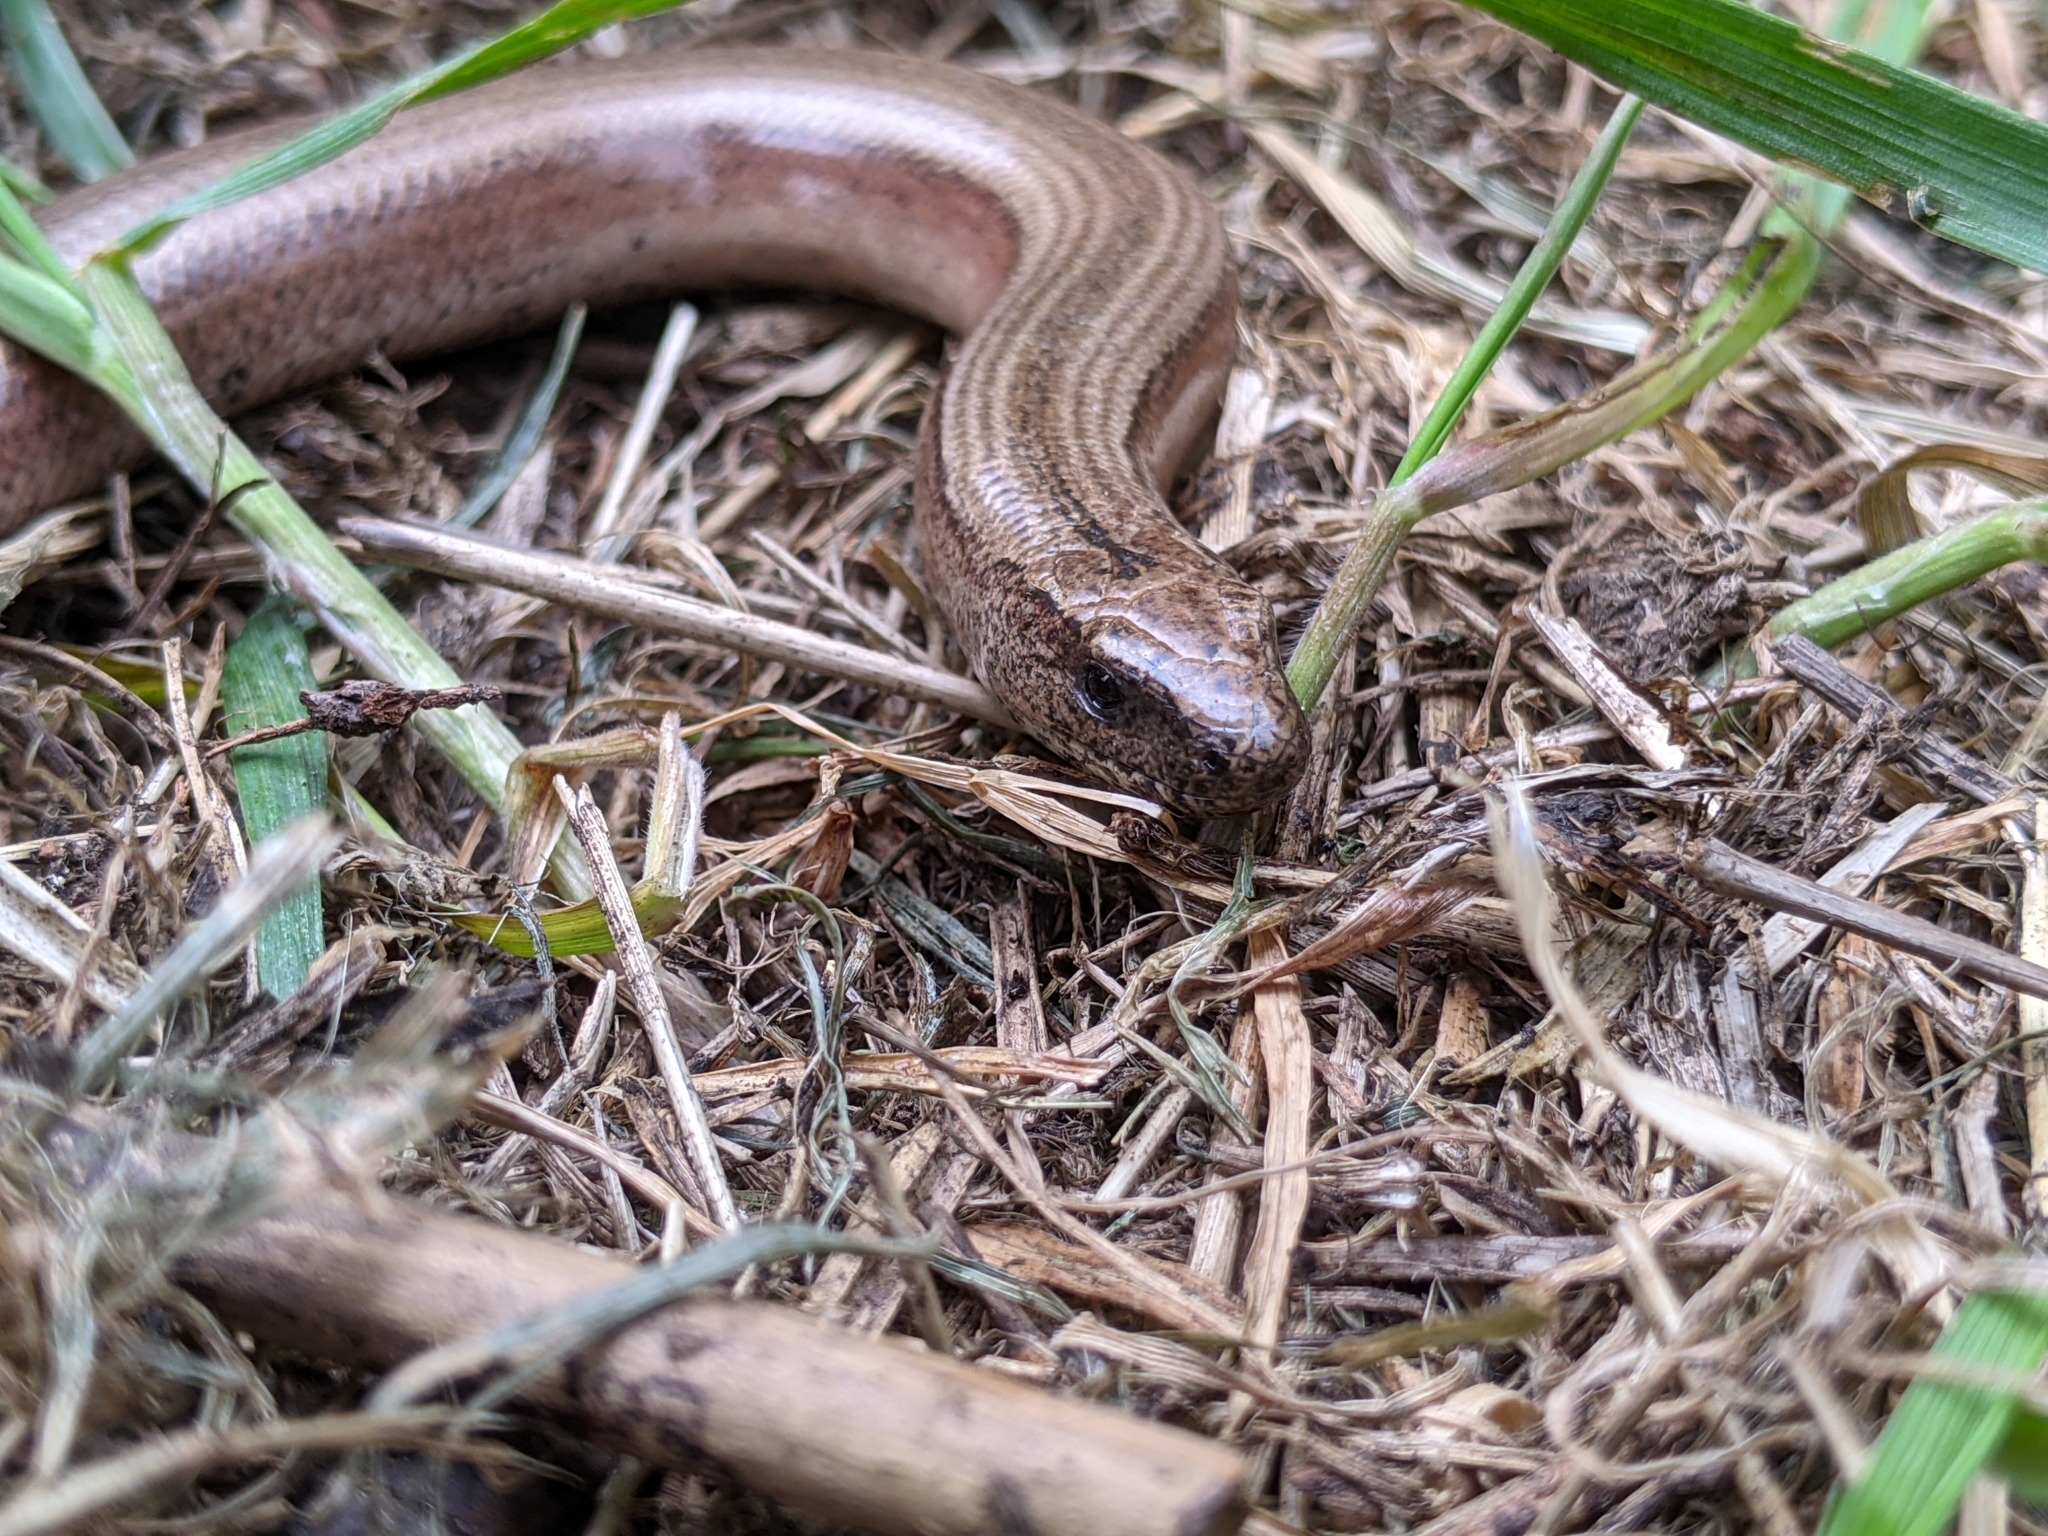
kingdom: Animalia
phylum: Chordata
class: Squamata
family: Anguidae
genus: Anguis
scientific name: Anguis fragilis
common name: Slow worm
